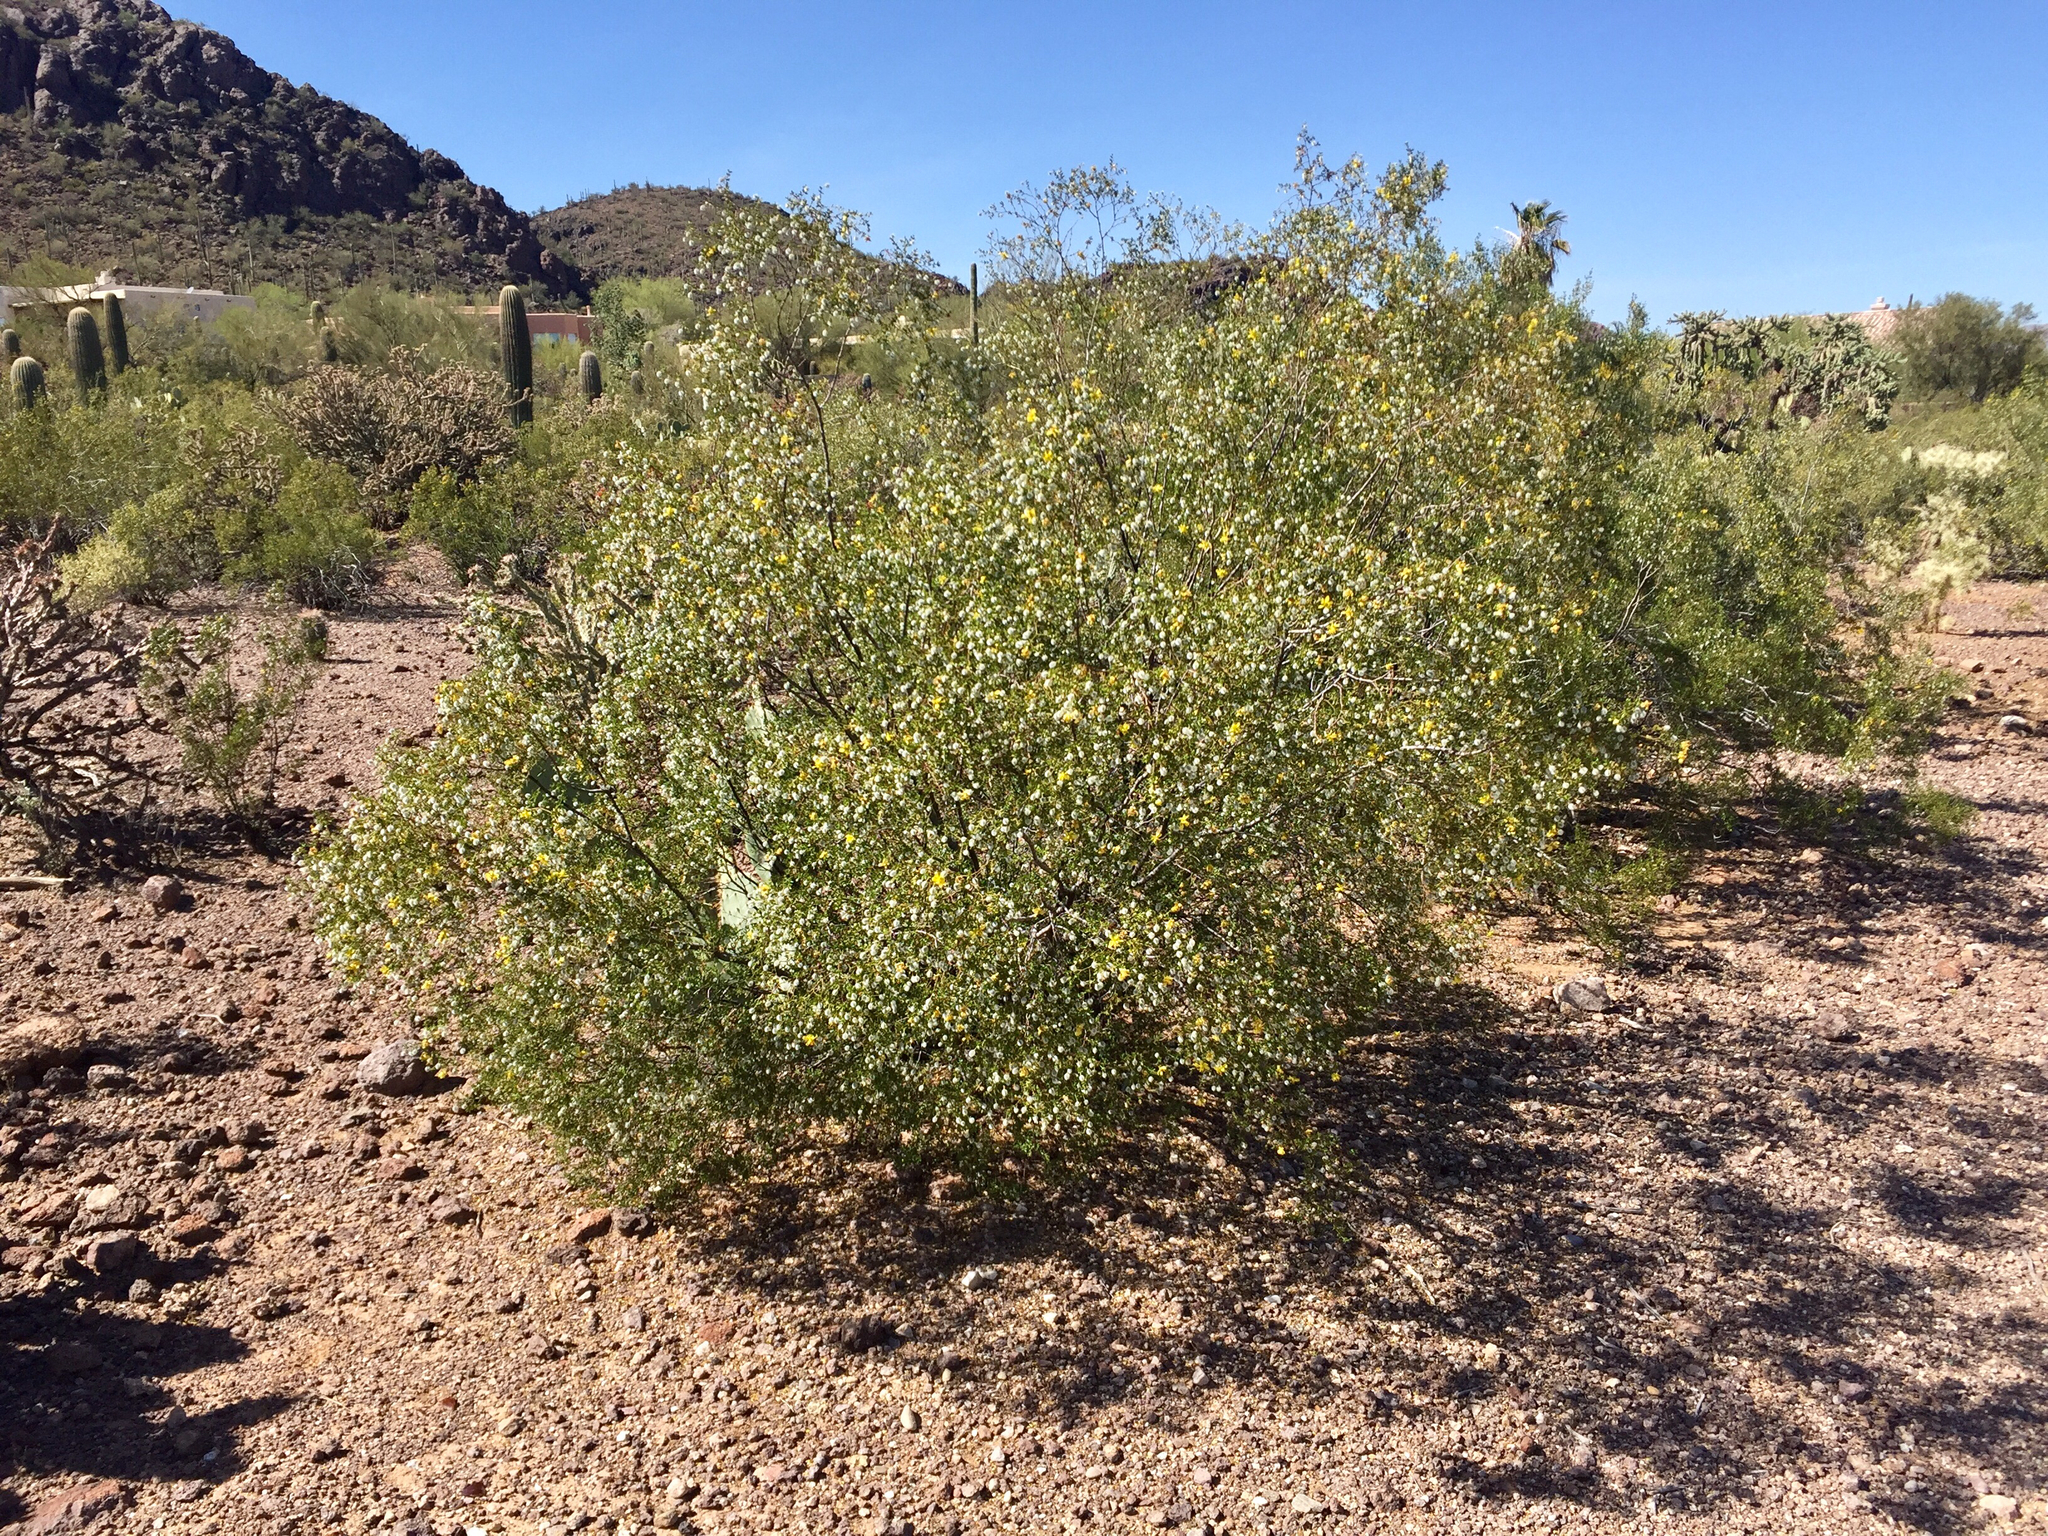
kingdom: Plantae
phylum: Tracheophyta
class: Magnoliopsida
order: Zygophyllales
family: Zygophyllaceae
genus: Larrea
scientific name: Larrea tridentata
